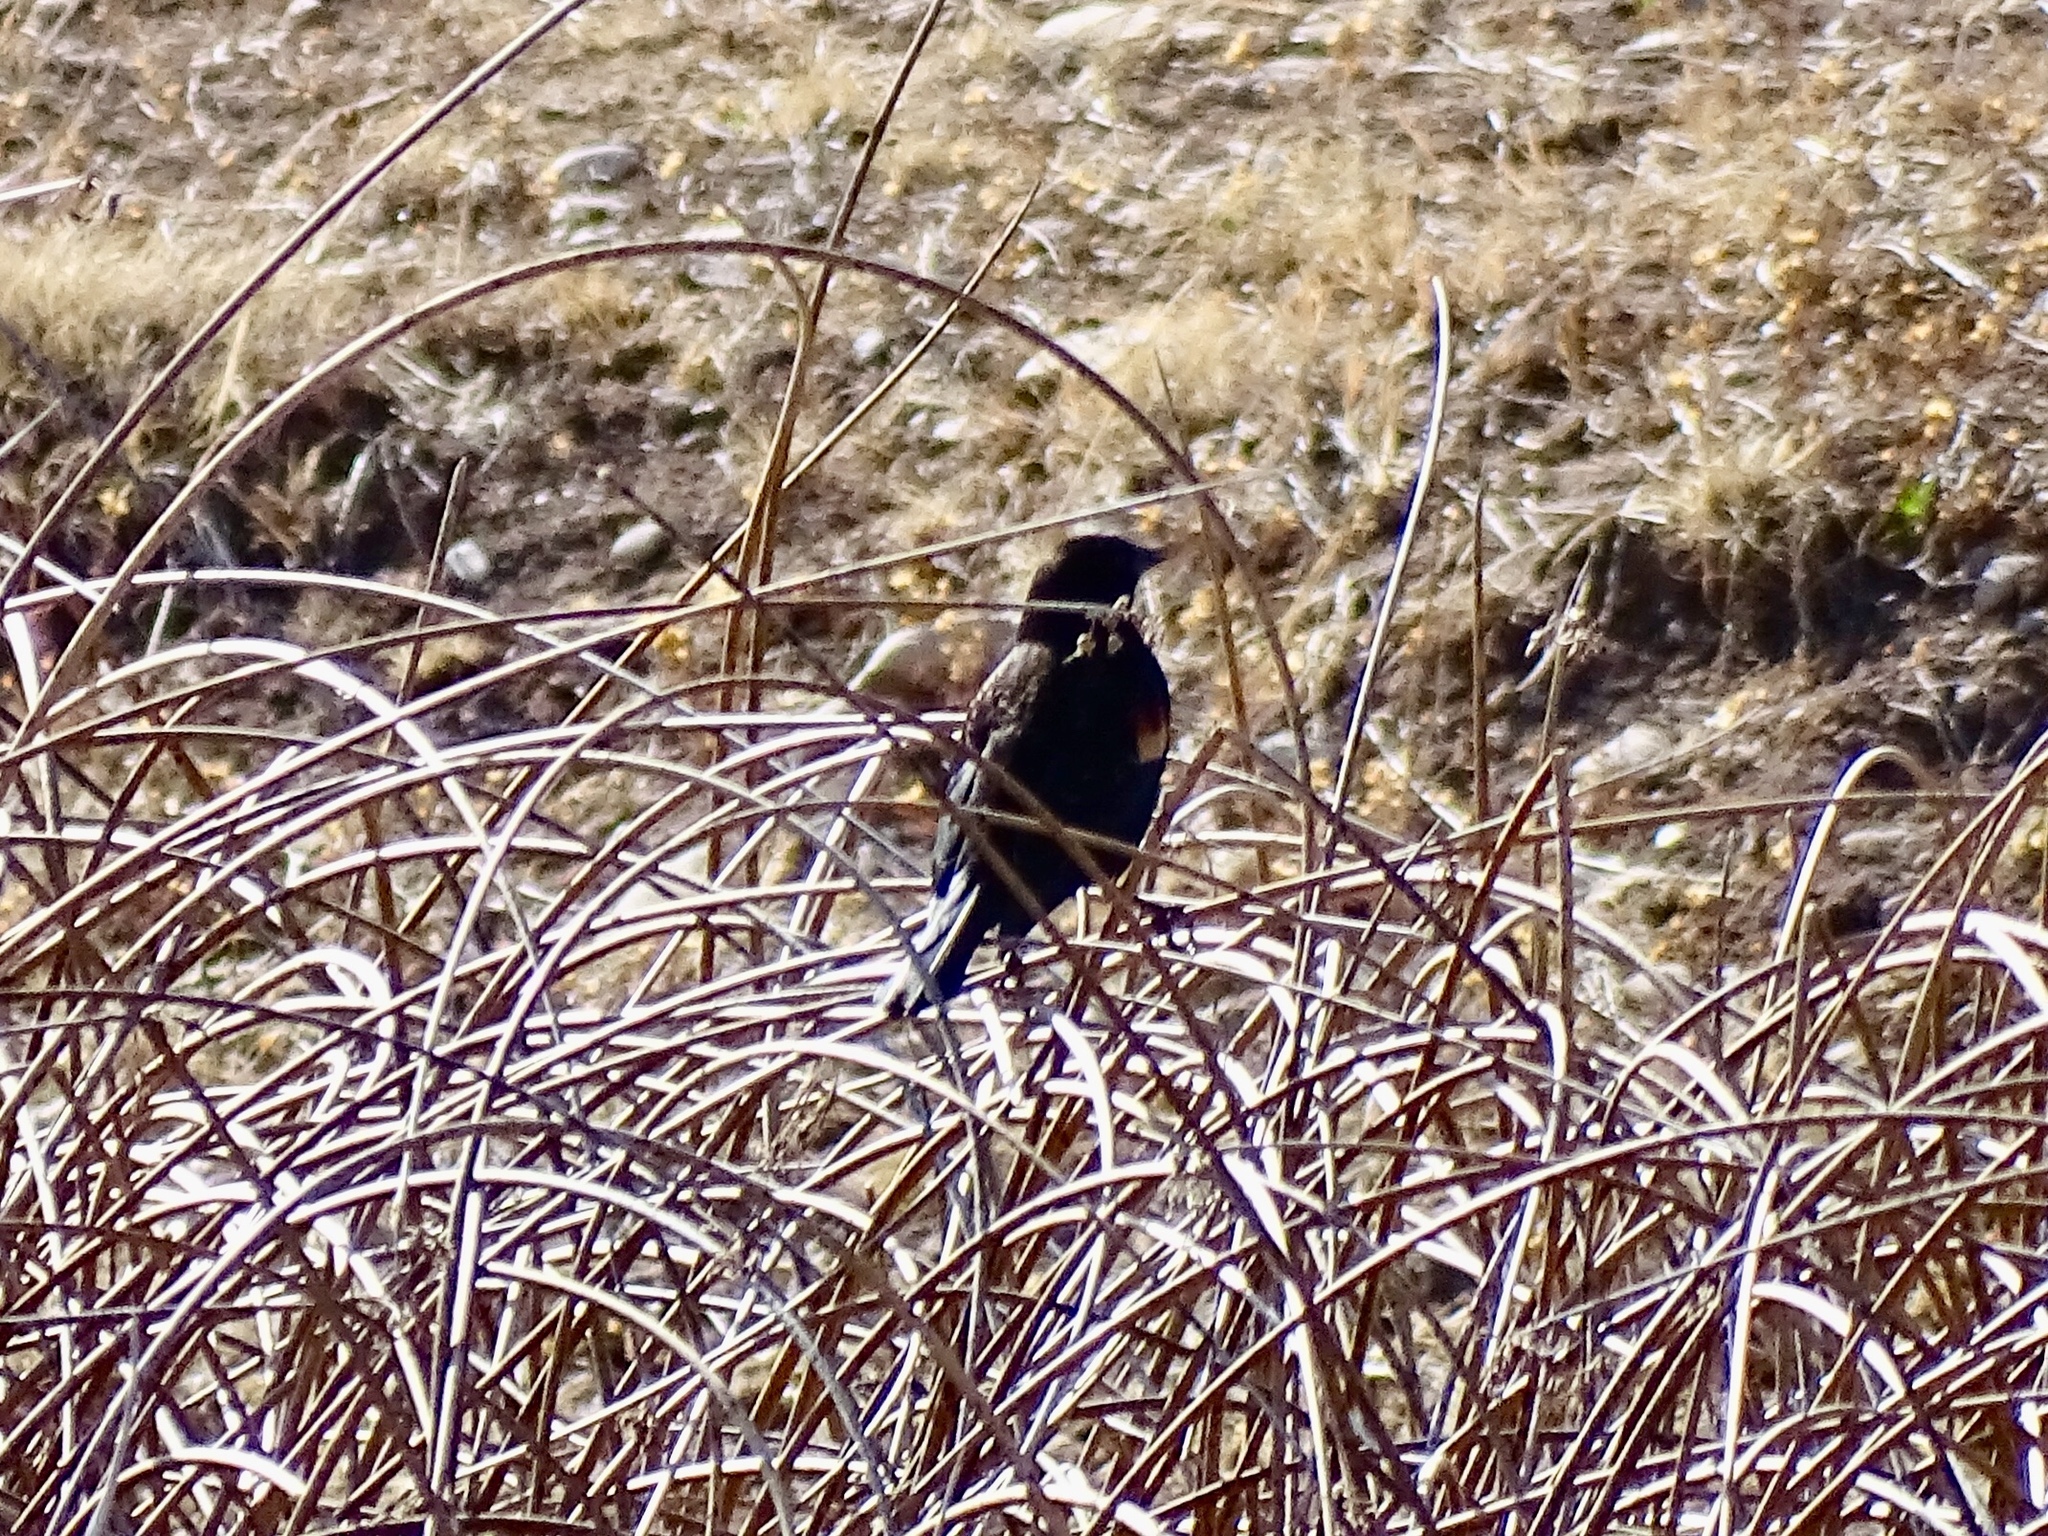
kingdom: Animalia
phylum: Chordata
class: Aves
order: Passeriformes
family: Icteridae
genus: Agelaius
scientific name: Agelaius phoeniceus
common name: Red-winged blackbird
